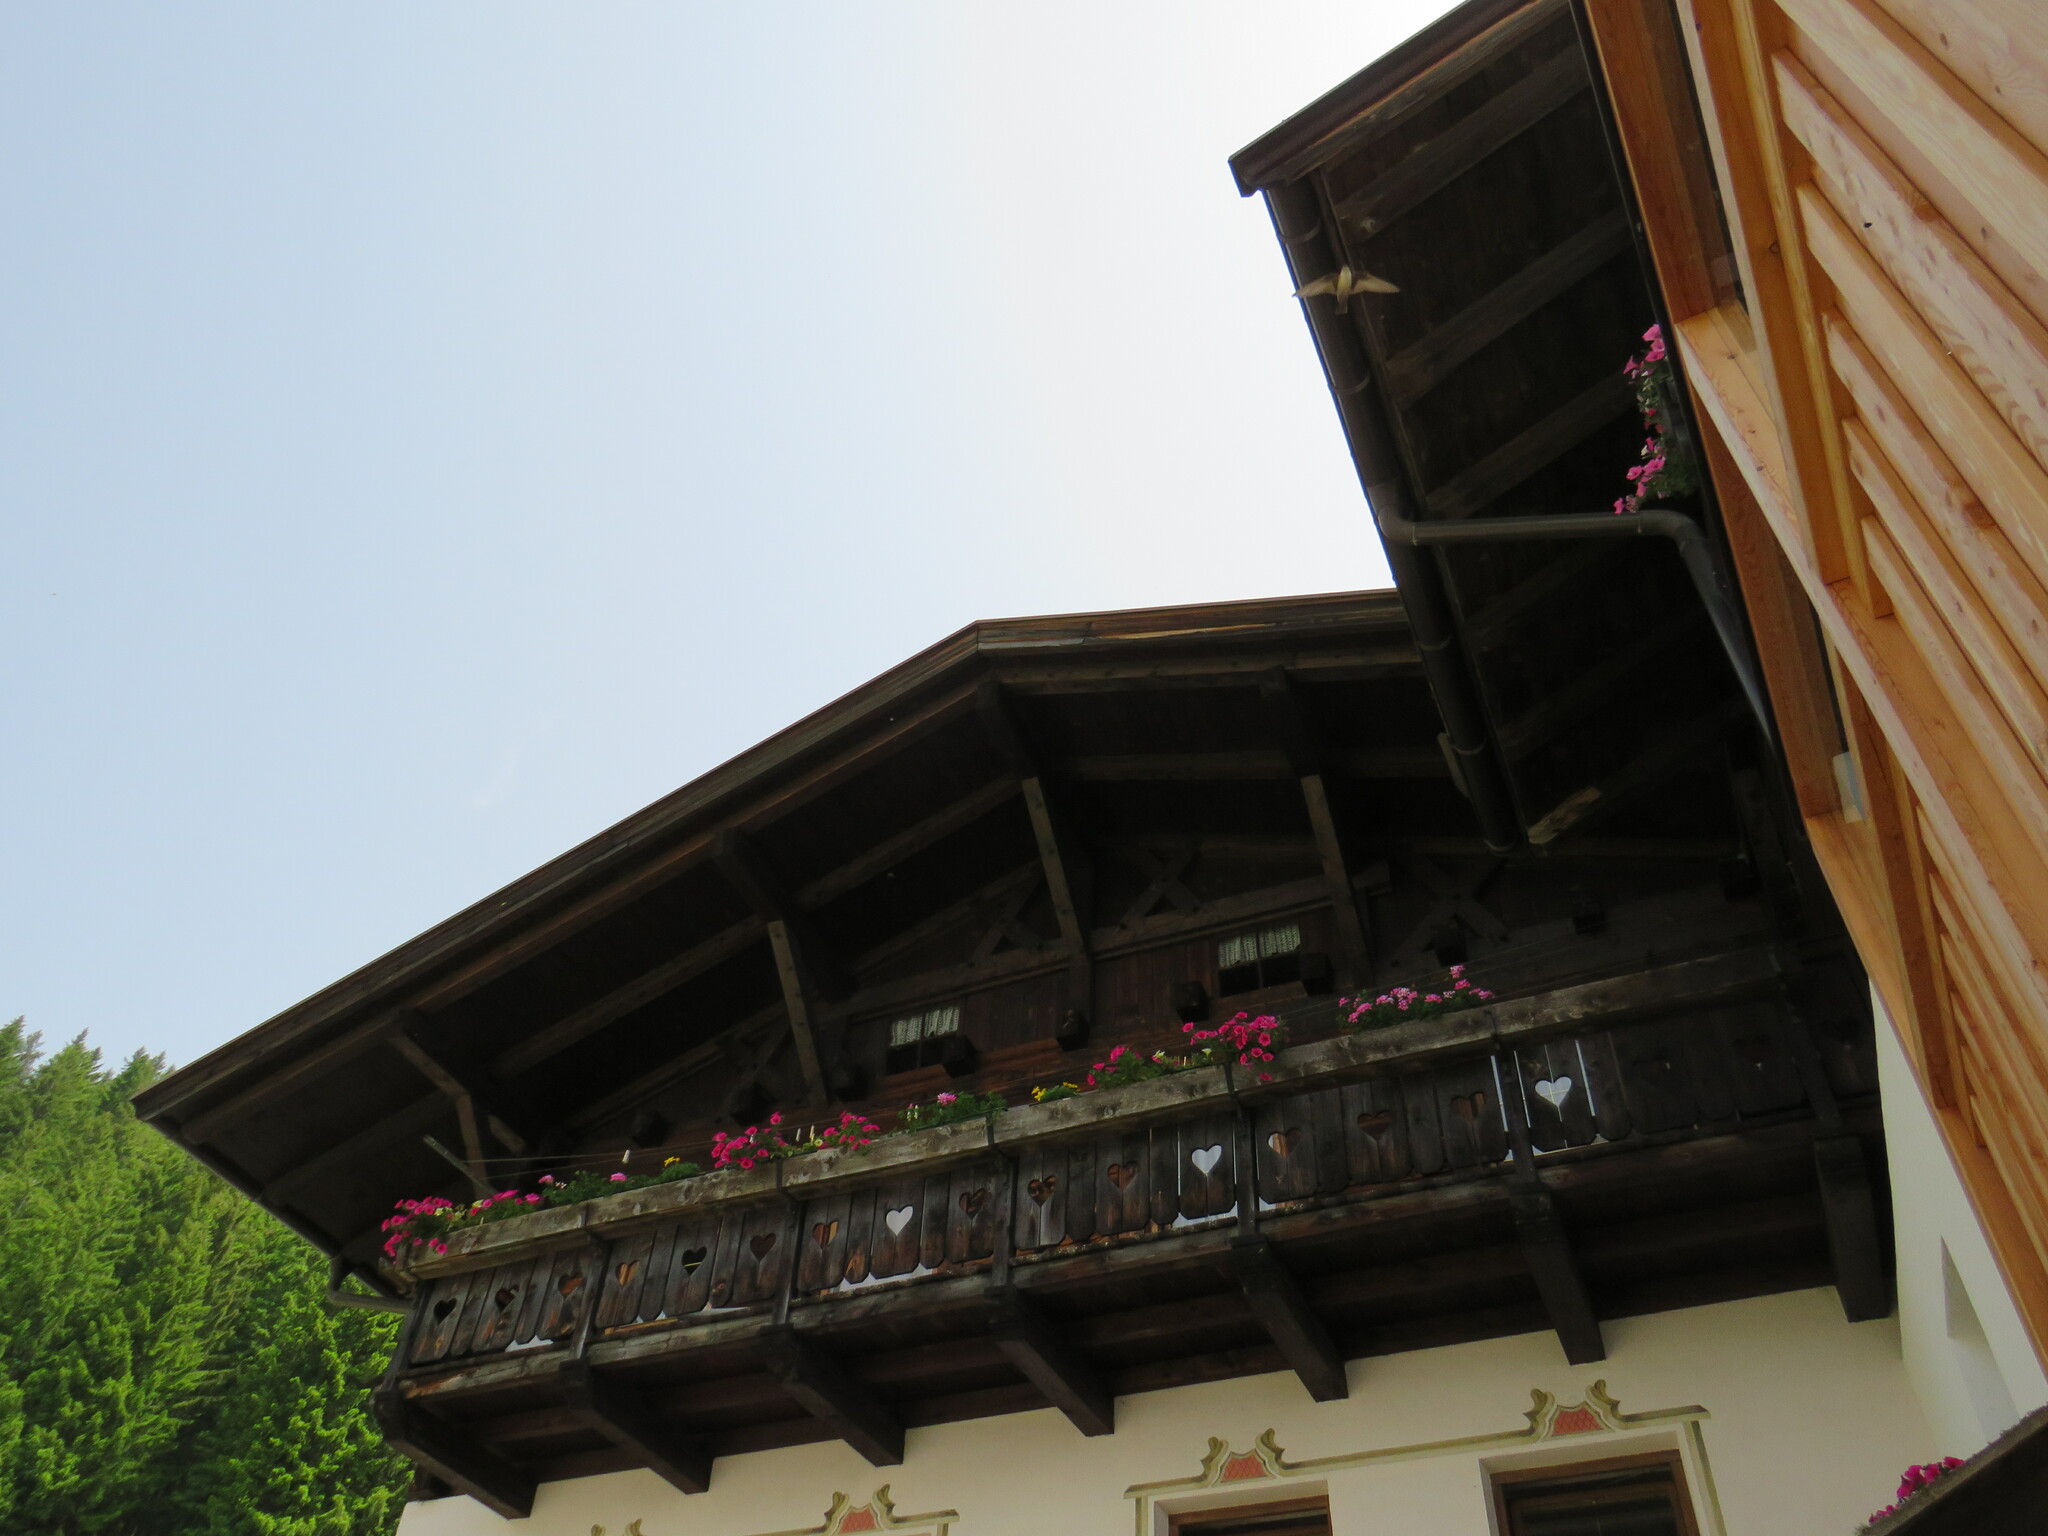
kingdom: Animalia
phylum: Chordata
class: Aves
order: Passeriformes
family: Hirundinidae
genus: Ptyonoprogne
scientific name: Ptyonoprogne rupestris
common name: Eurasian crag martin
